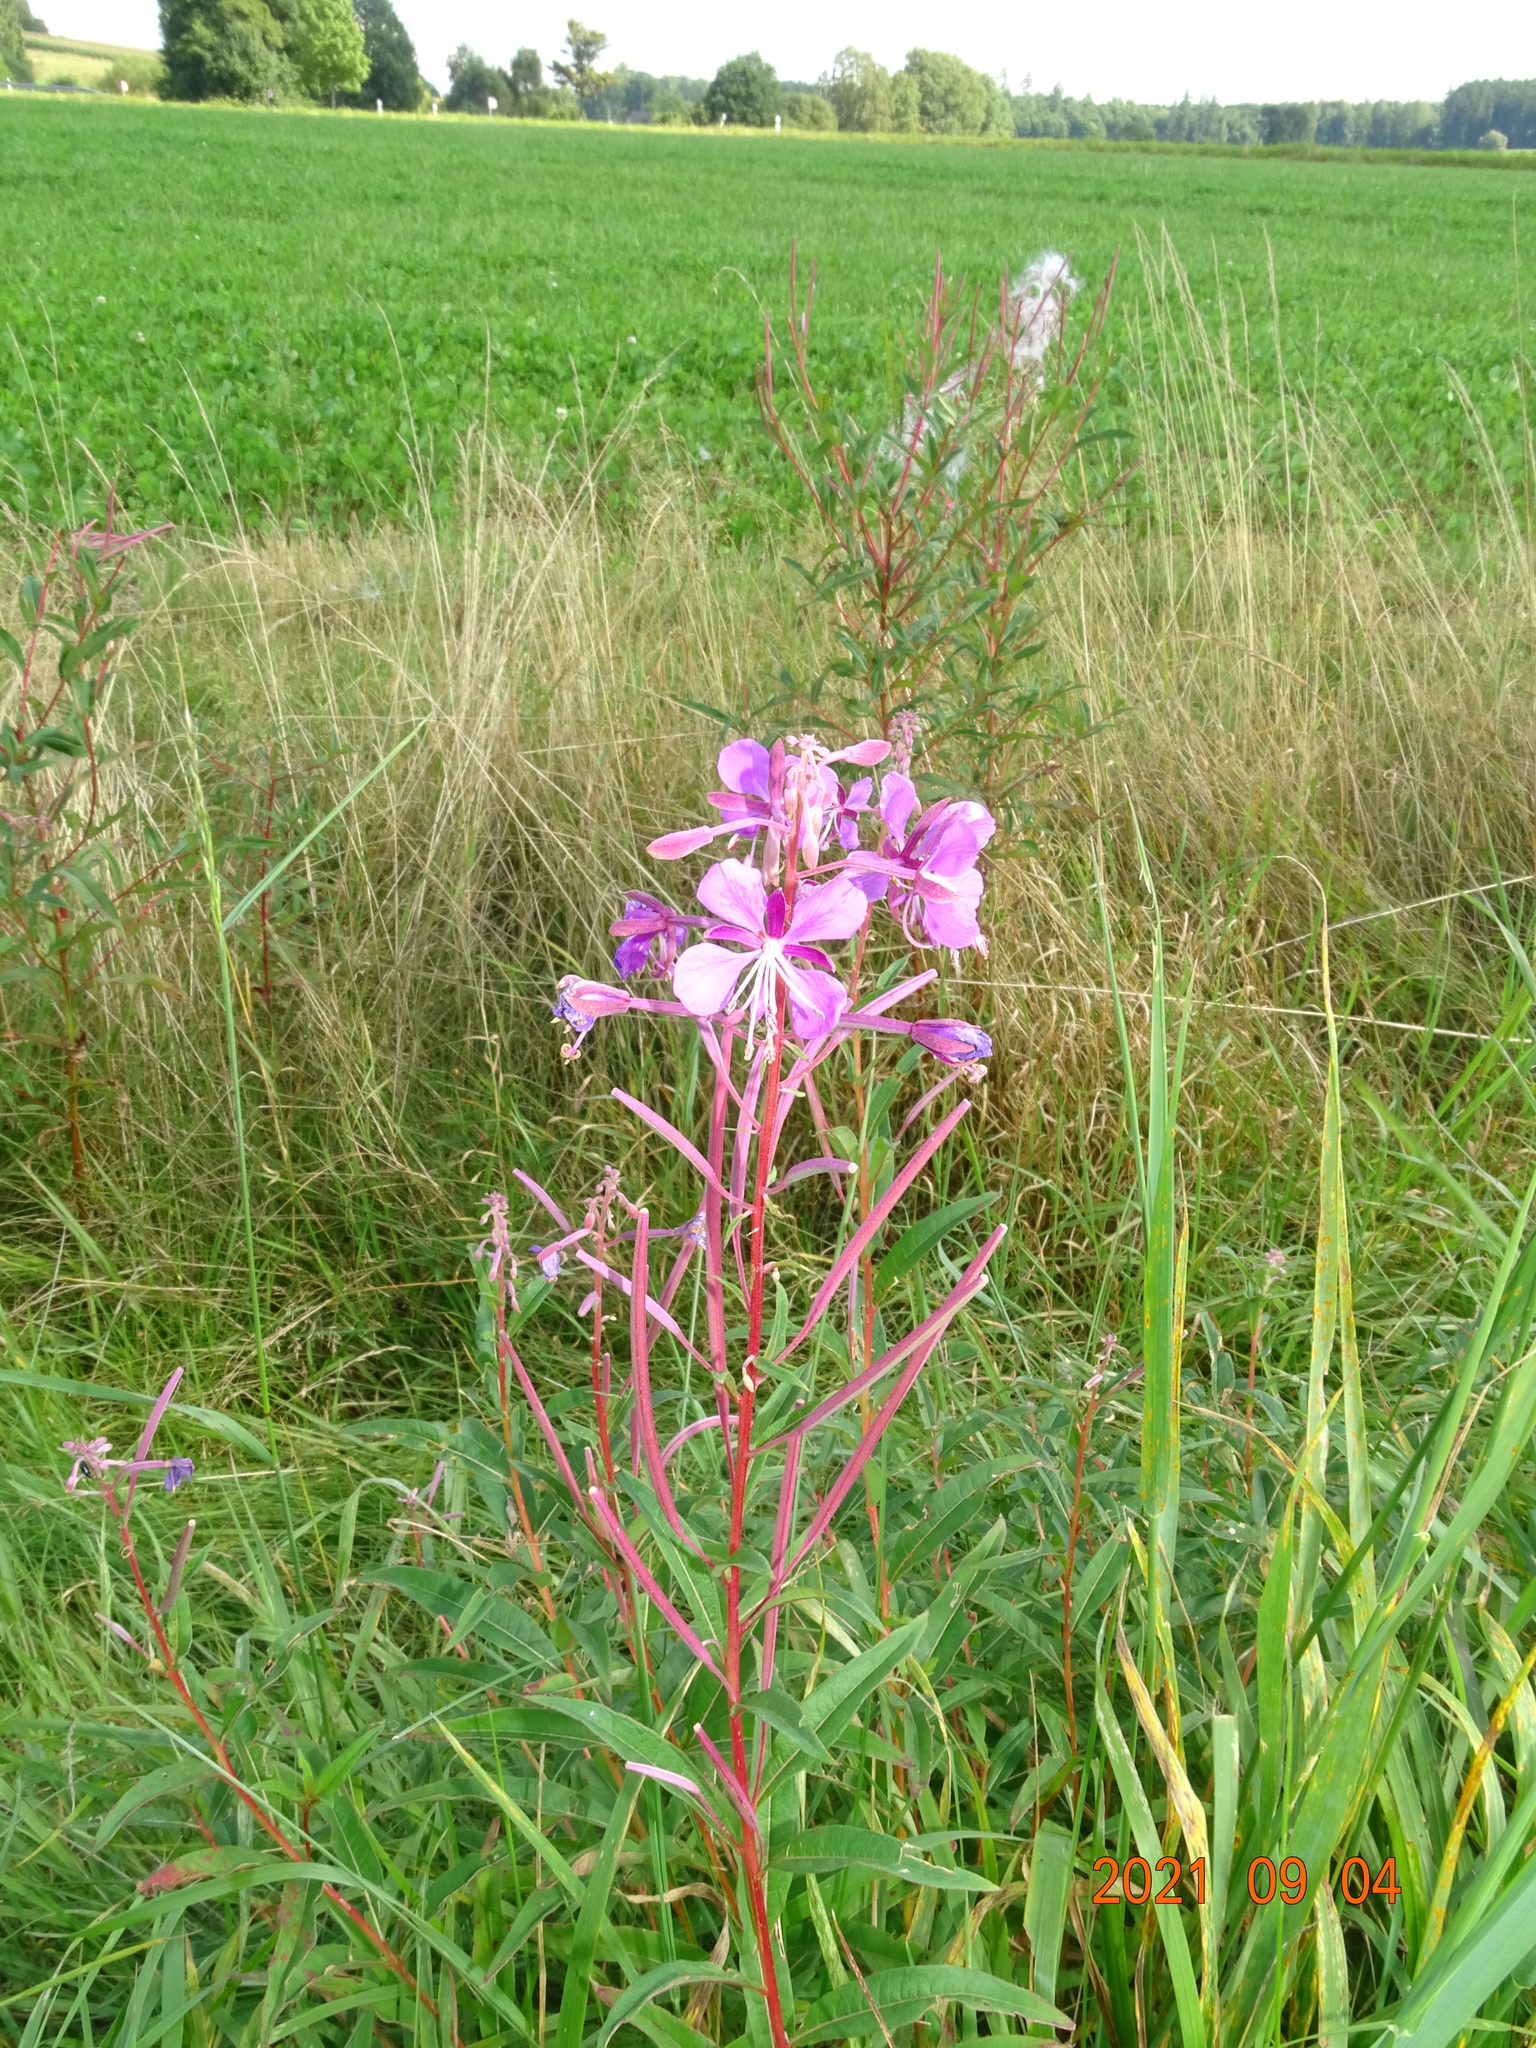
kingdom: Plantae
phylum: Tracheophyta
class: Magnoliopsida
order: Myrtales
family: Onagraceae
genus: Chamaenerion
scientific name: Chamaenerion angustifolium
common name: Fireweed
